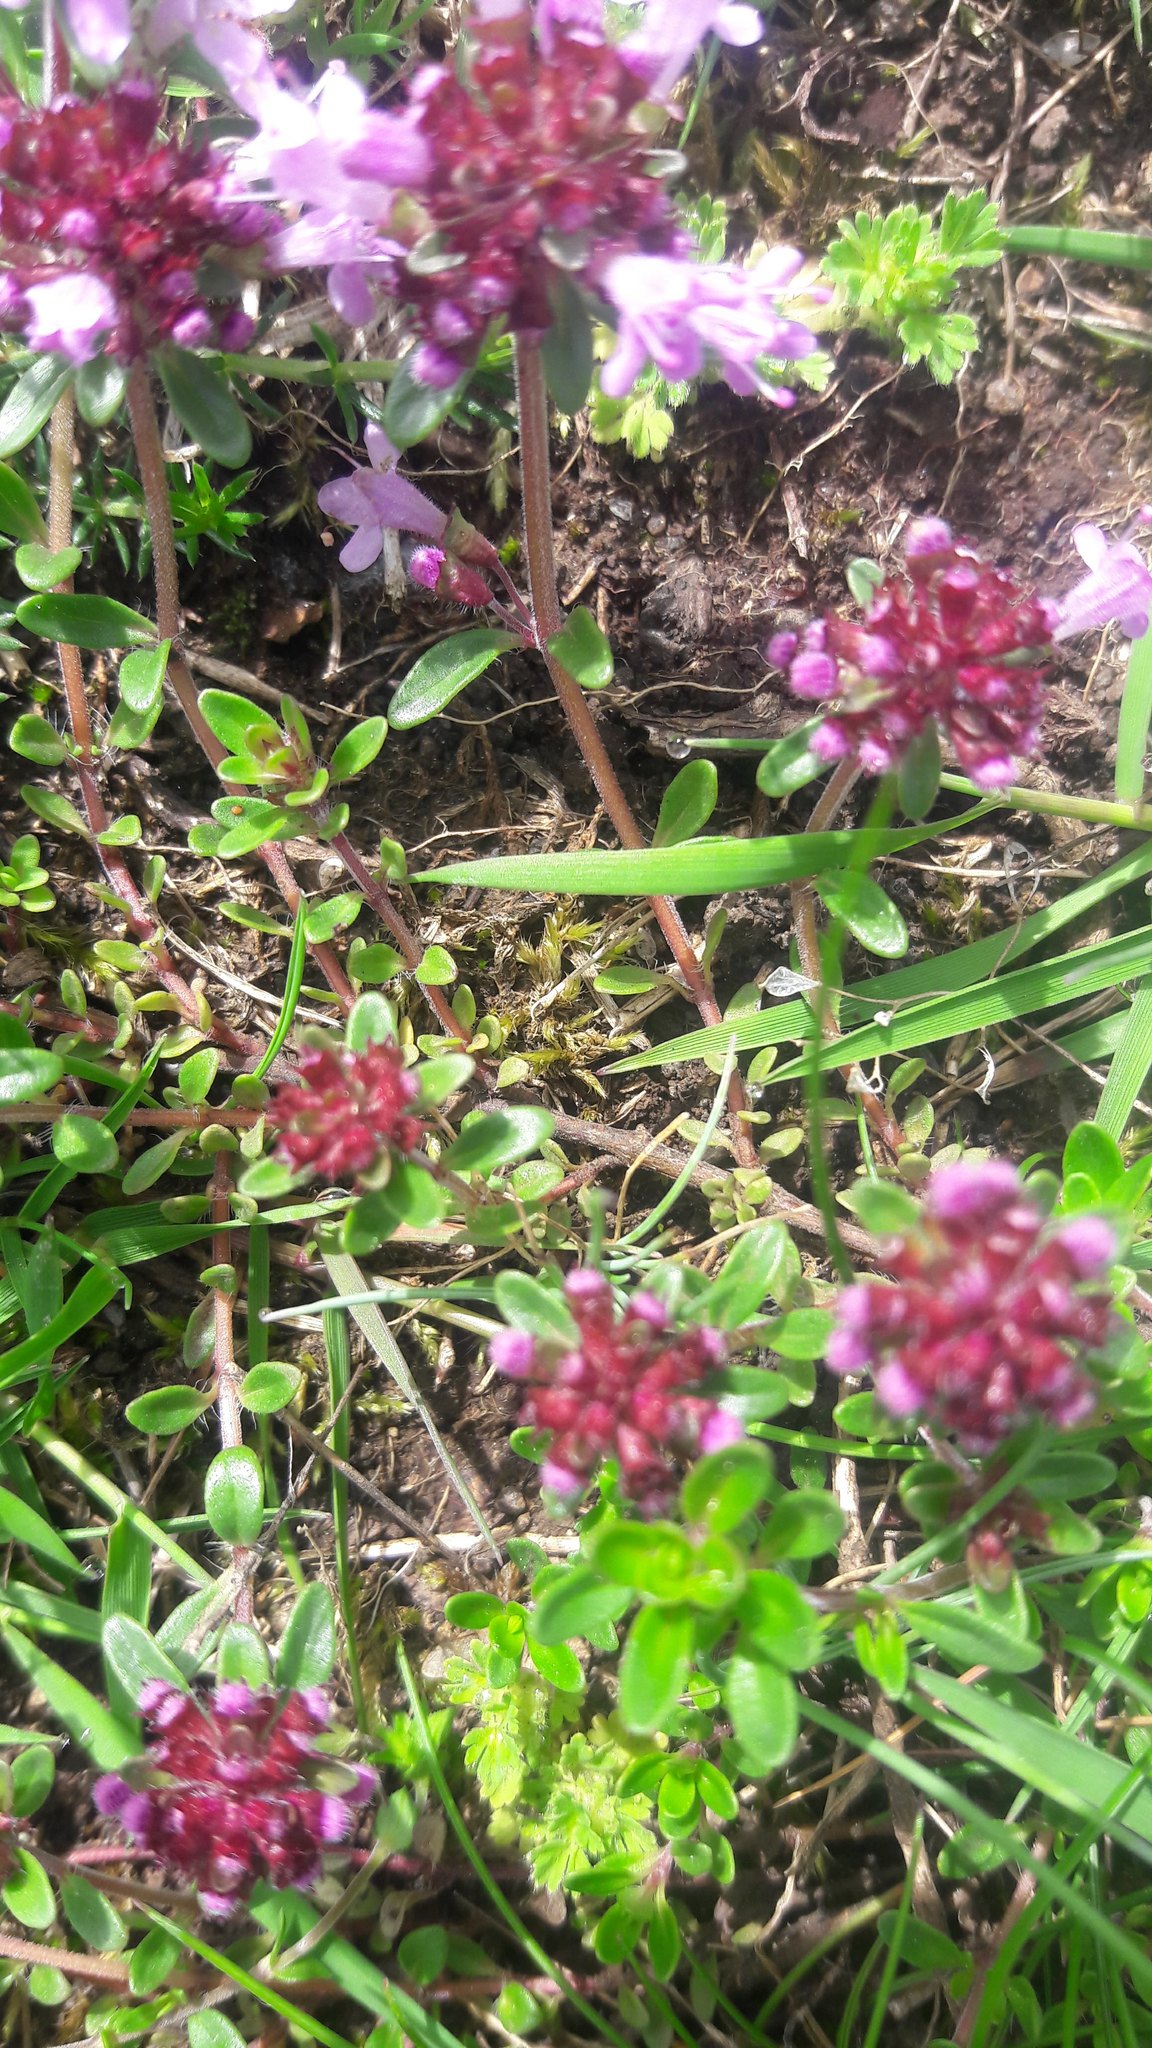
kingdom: Plantae
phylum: Tracheophyta
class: Magnoliopsida
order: Lamiales
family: Lamiaceae
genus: Thymus
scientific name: Thymus pulegioides
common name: Large thyme
